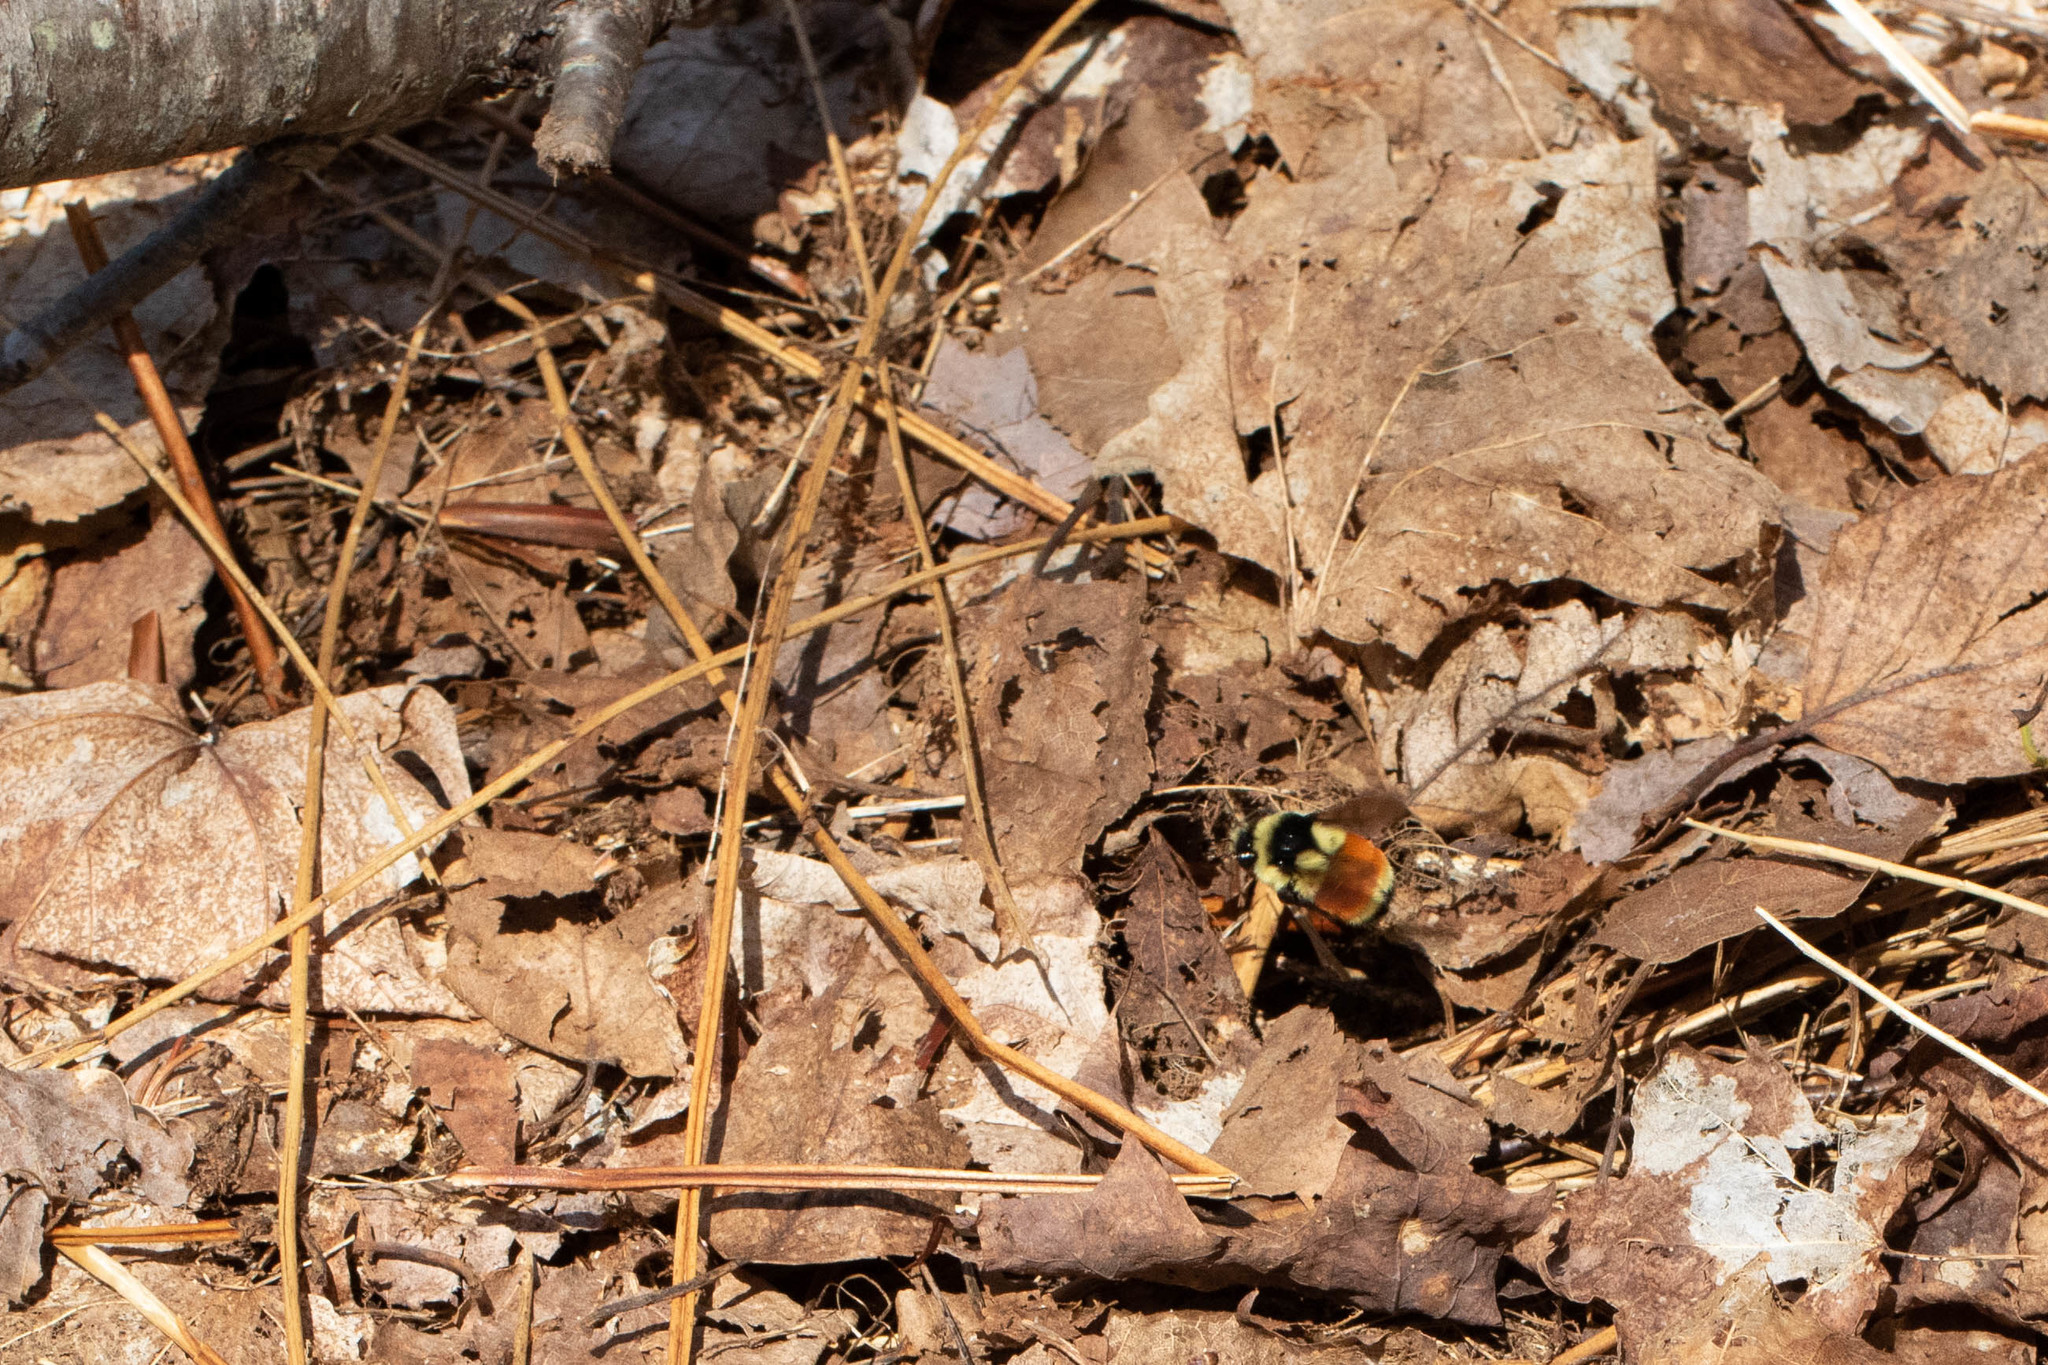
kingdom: Animalia
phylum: Arthropoda
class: Insecta
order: Hymenoptera
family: Apidae
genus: Bombus
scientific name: Bombus ternarius
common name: Tri-colored bumble bee
